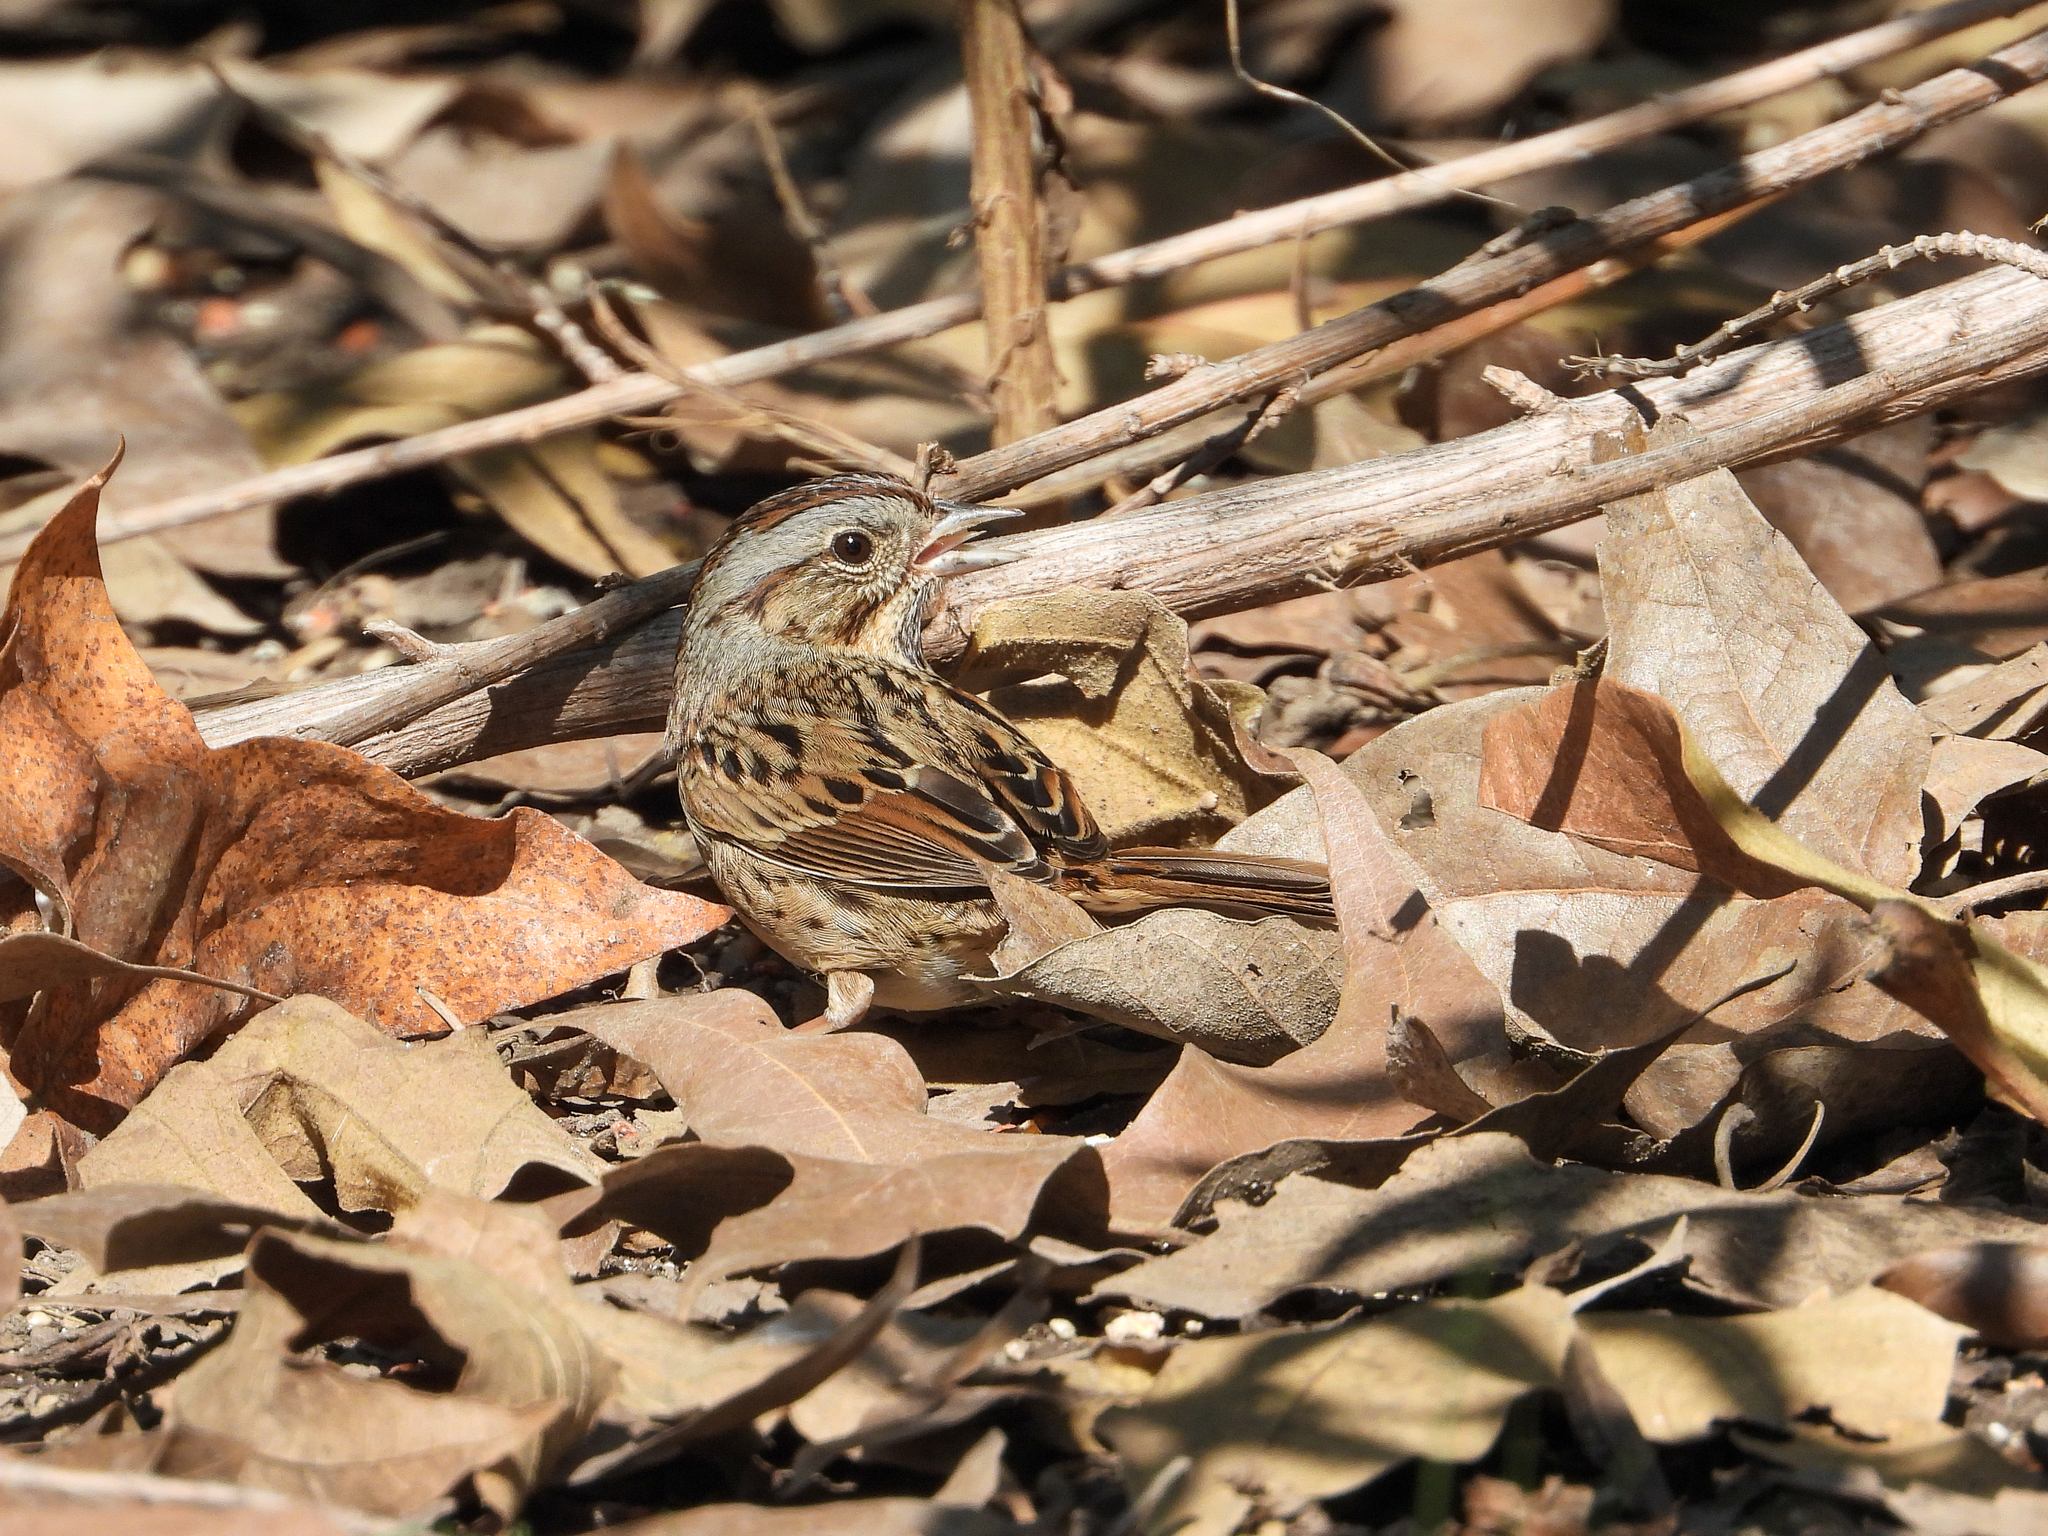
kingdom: Animalia
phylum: Chordata
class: Aves
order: Passeriformes
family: Passerellidae
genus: Melospiza
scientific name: Melospiza lincolnii
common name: Lincoln's sparrow
